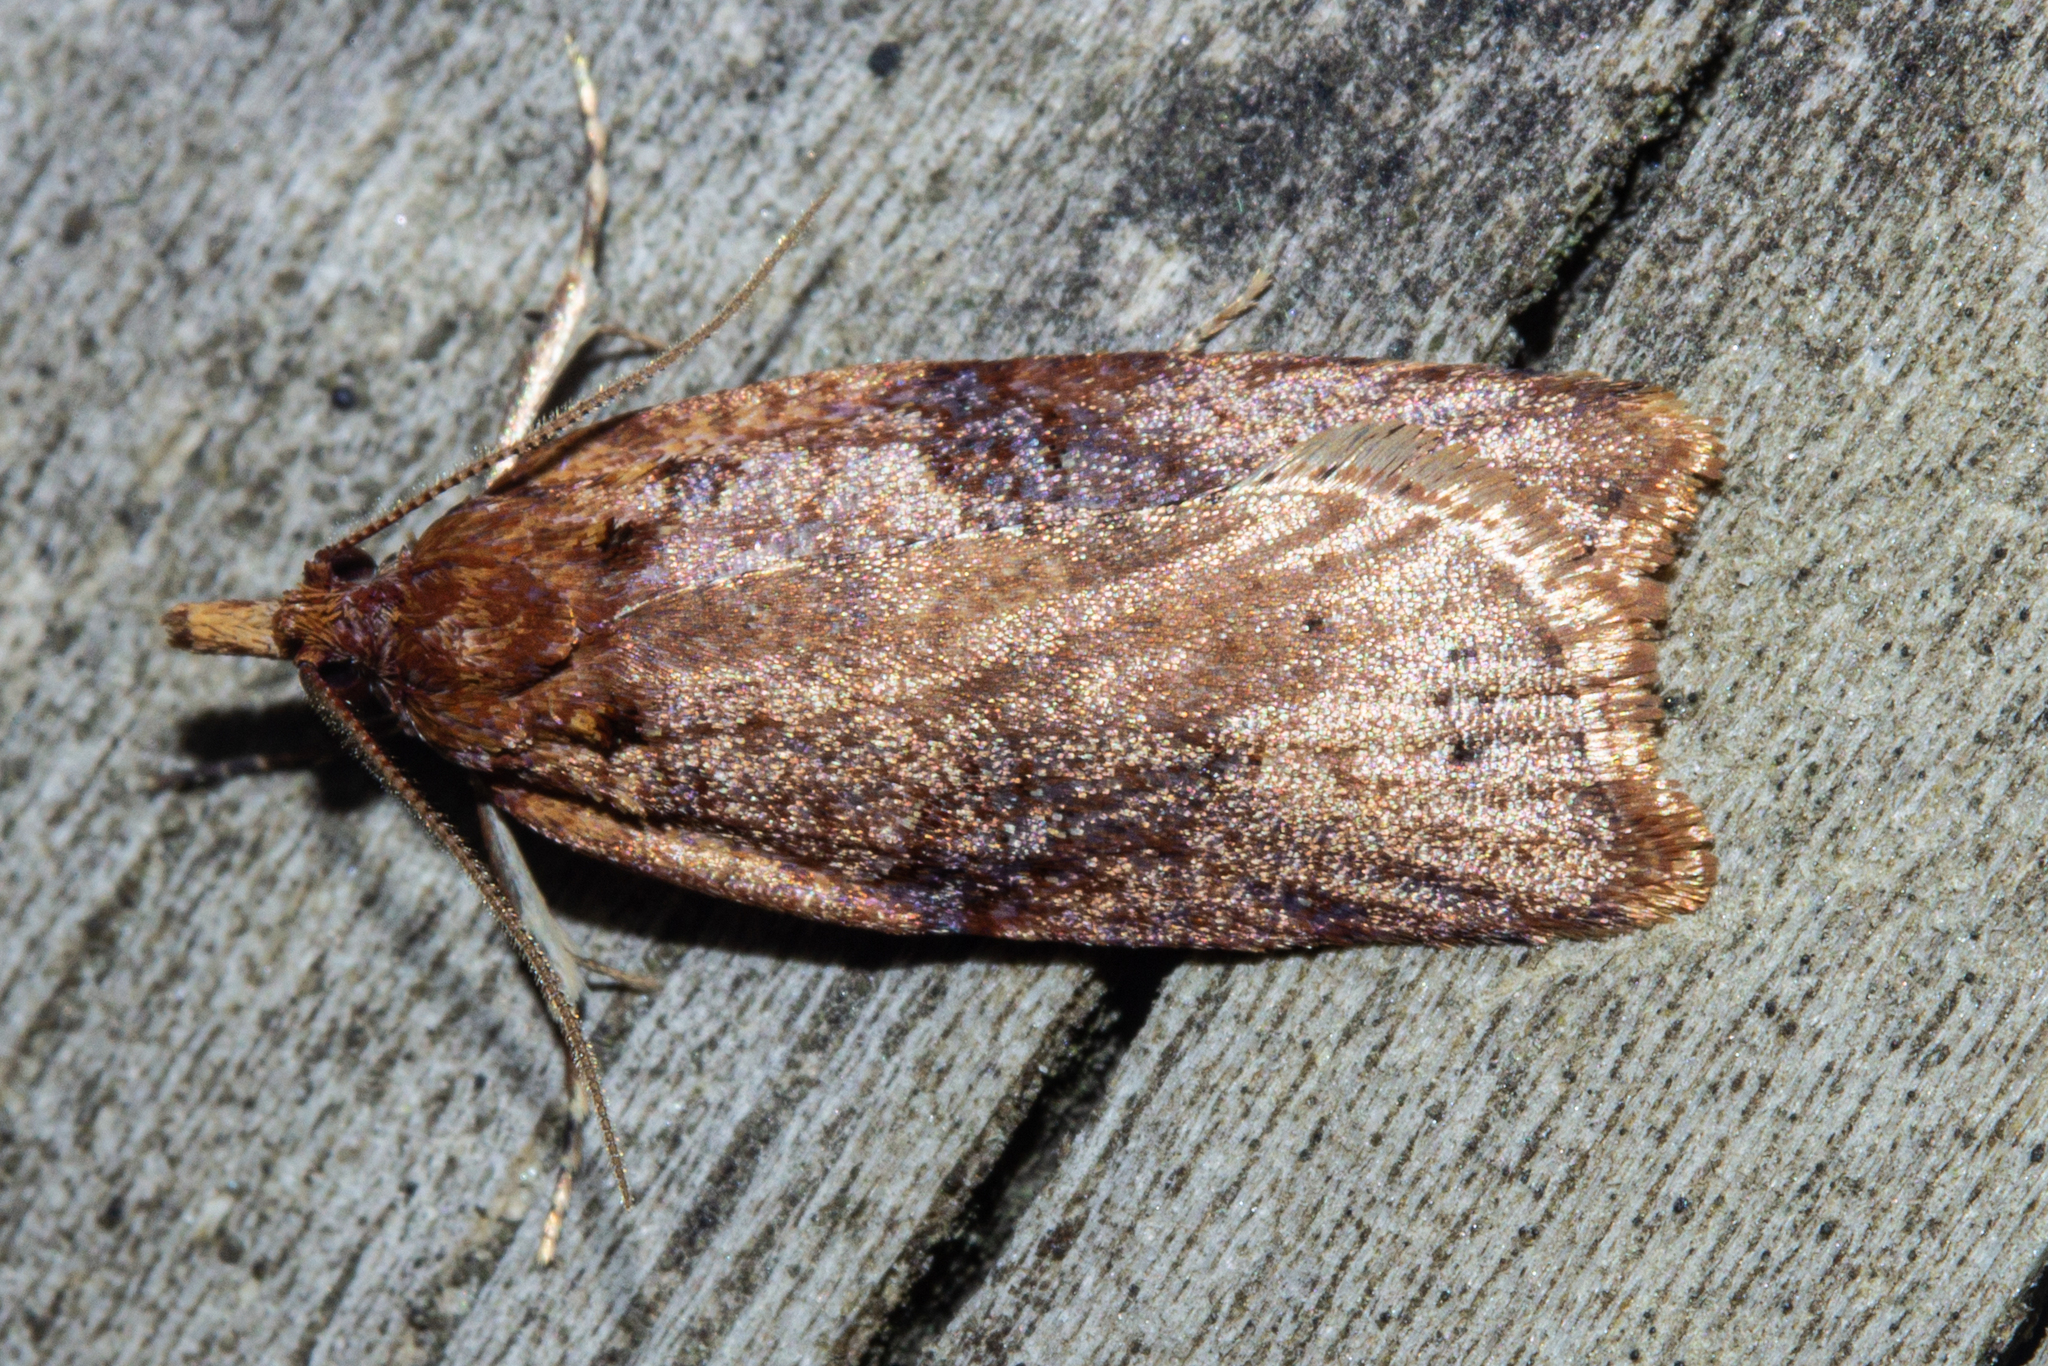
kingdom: Animalia
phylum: Arthropoda
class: Insecta
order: Lepidoptera
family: Tortricidae
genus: Ctenopseustis
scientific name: Ctenopseustis obliquana
